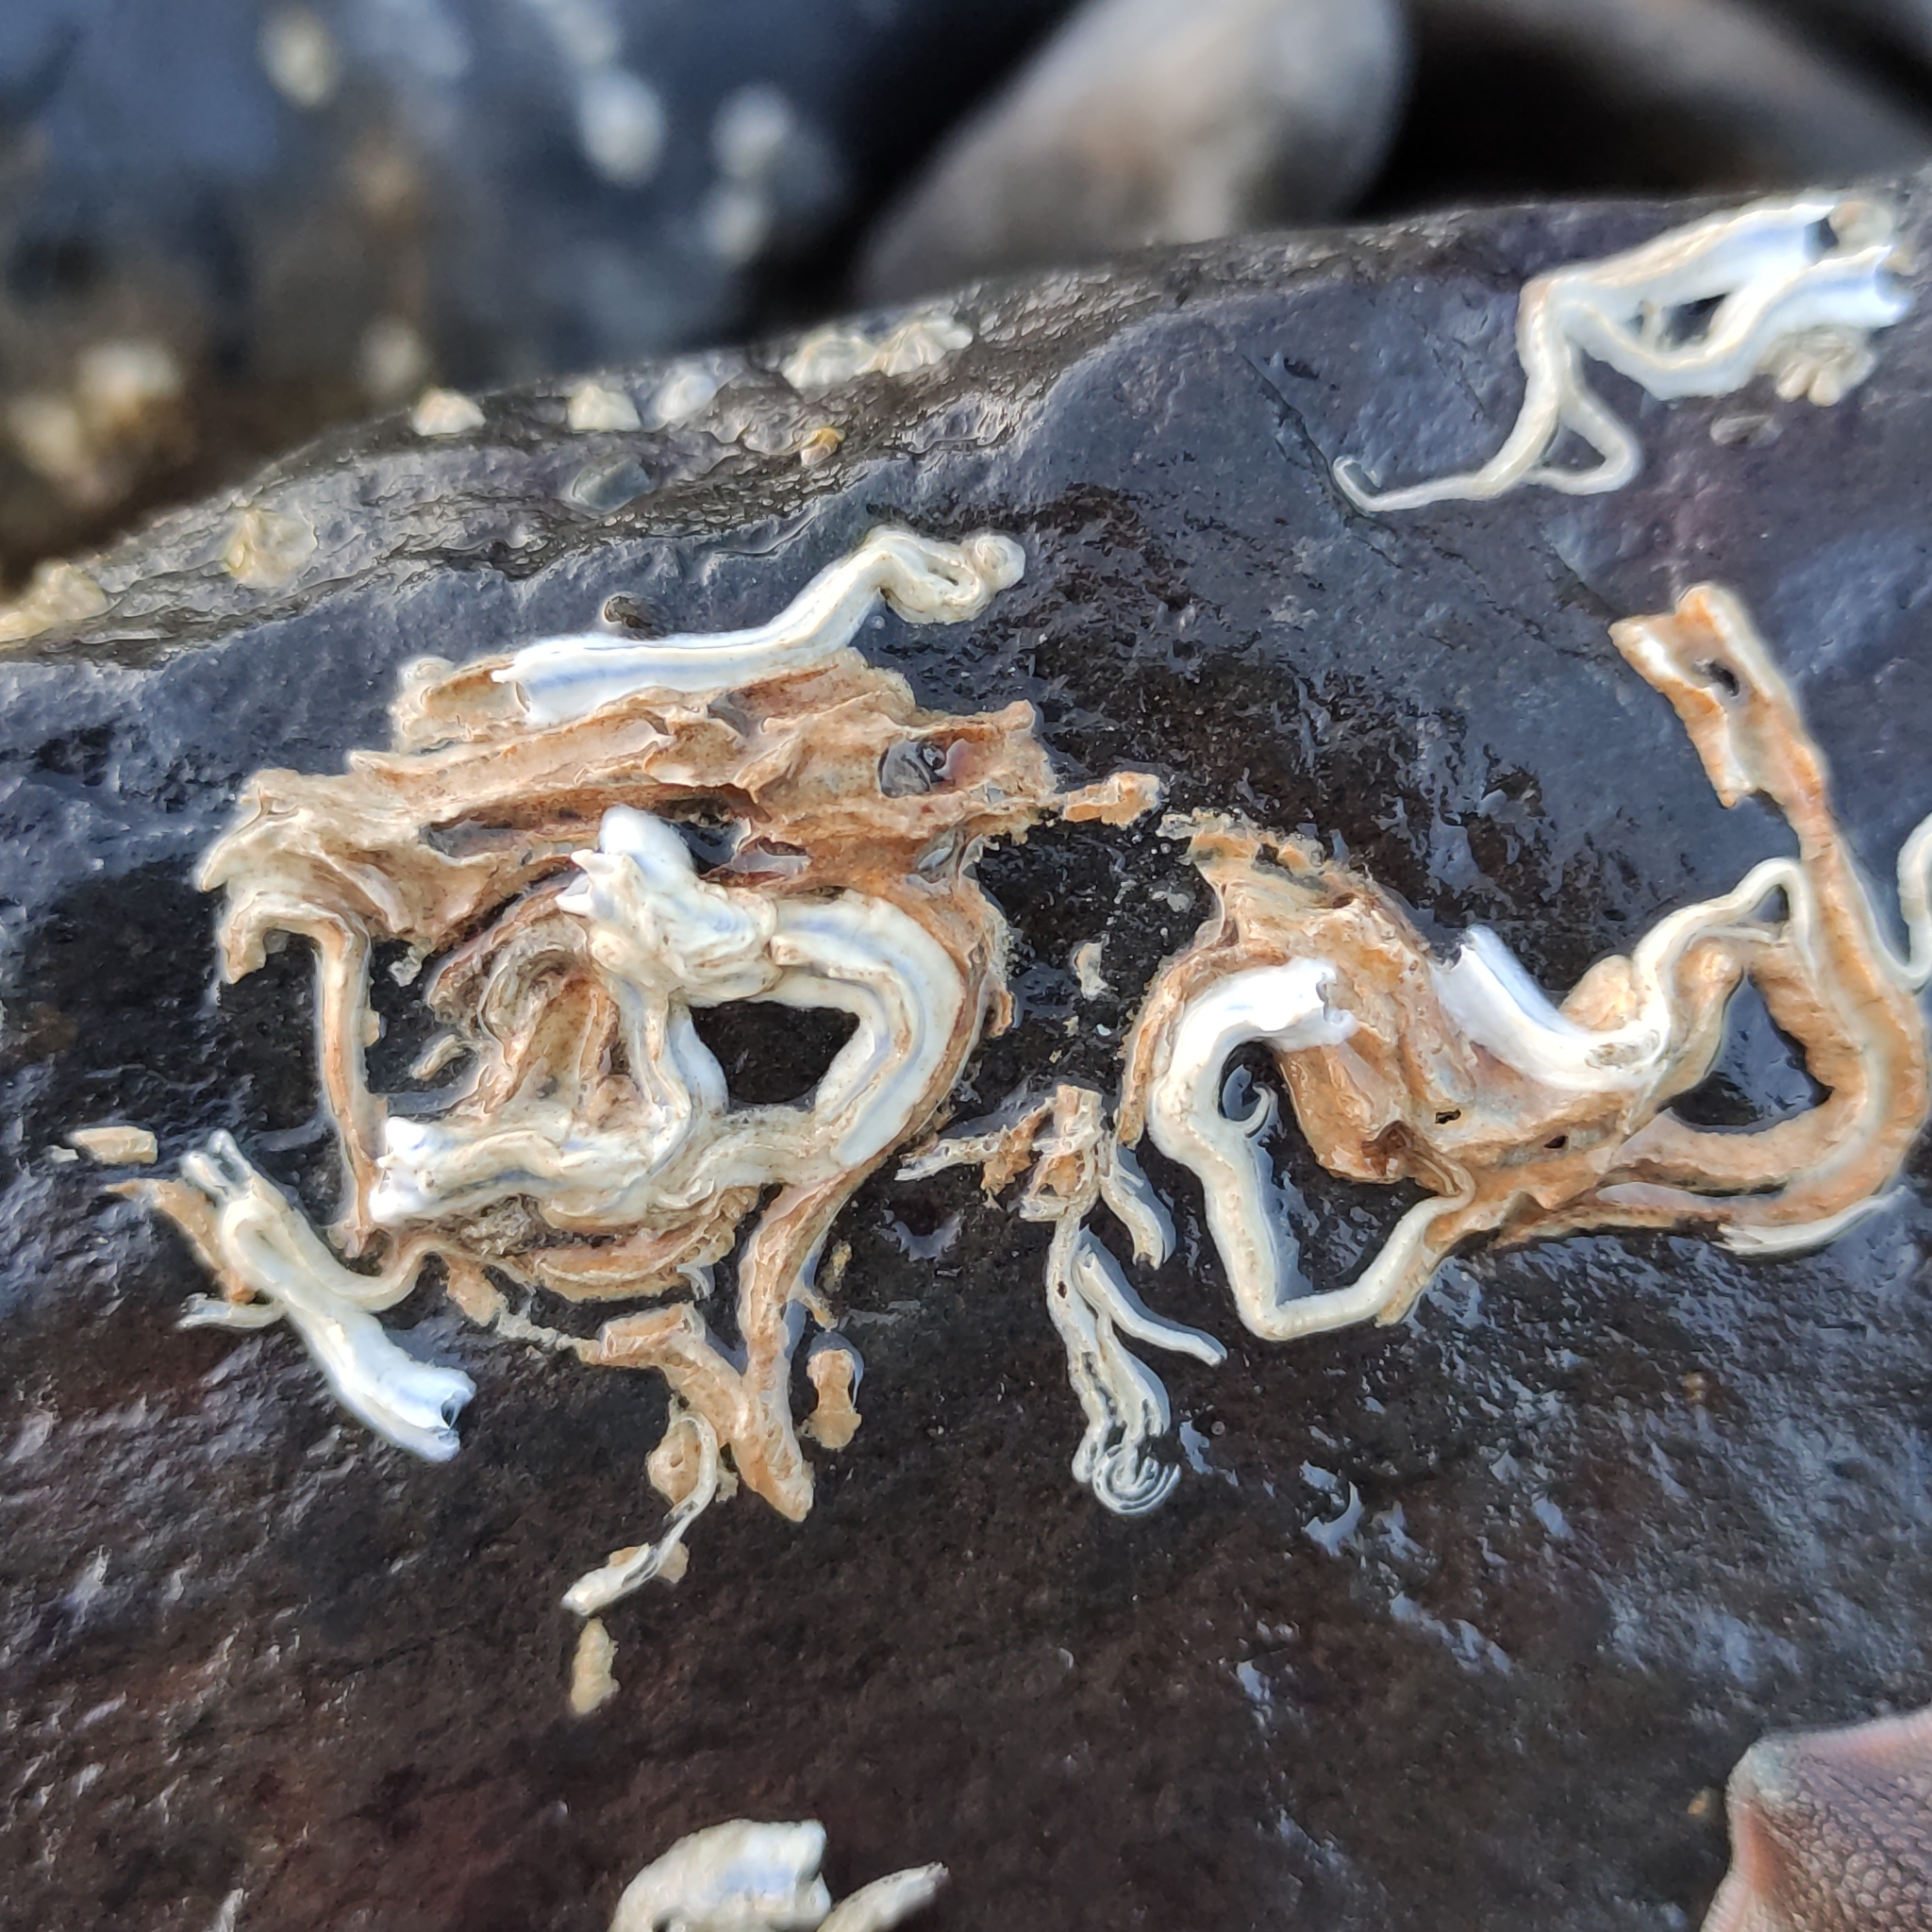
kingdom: Animalia
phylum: Annelida
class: Polychaeta
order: Sabellida
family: Serpulidae
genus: Spirobranchus
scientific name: Spirobranchus cariniferus
